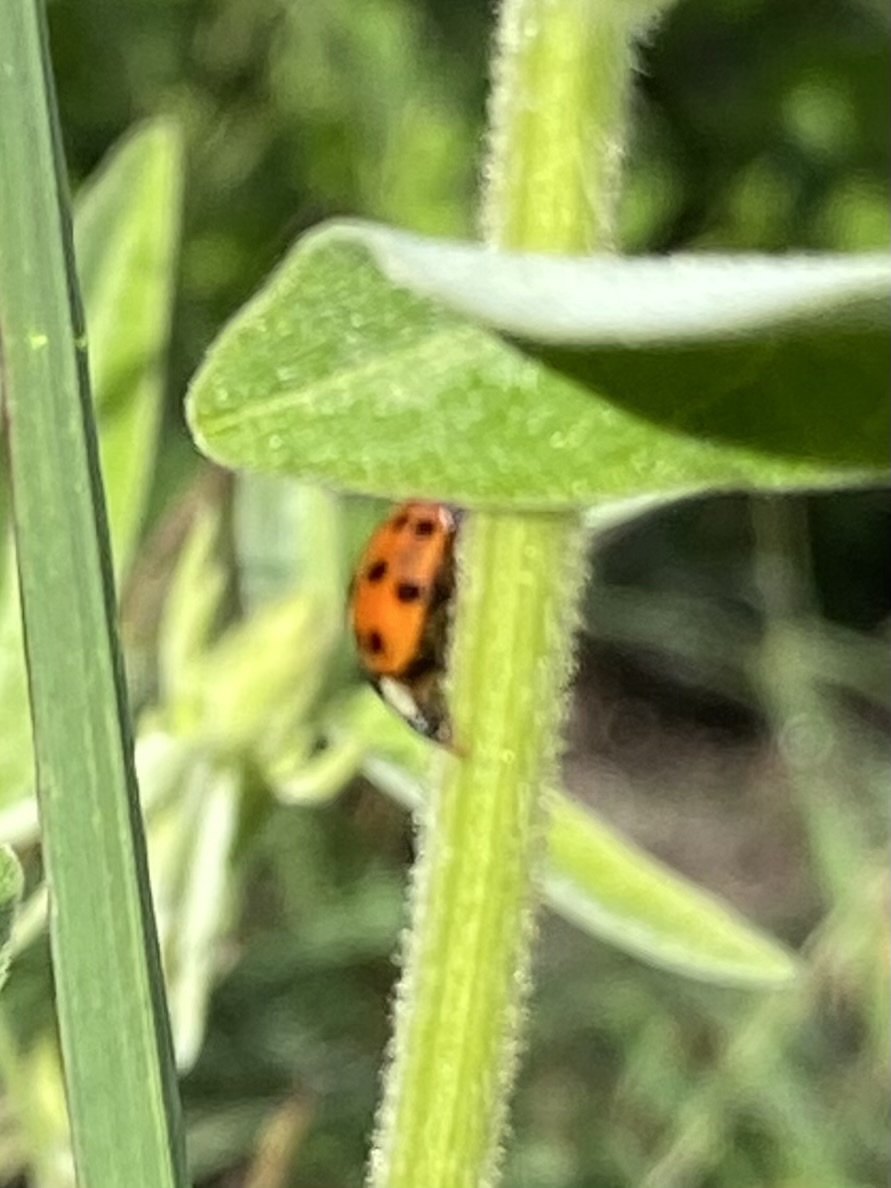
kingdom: Animalia
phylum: Arthropoda
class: Insecta
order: Coleoptera
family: Coccinellidae
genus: Harmonia
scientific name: Harmonia axyridis
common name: Harlequin ladybird
